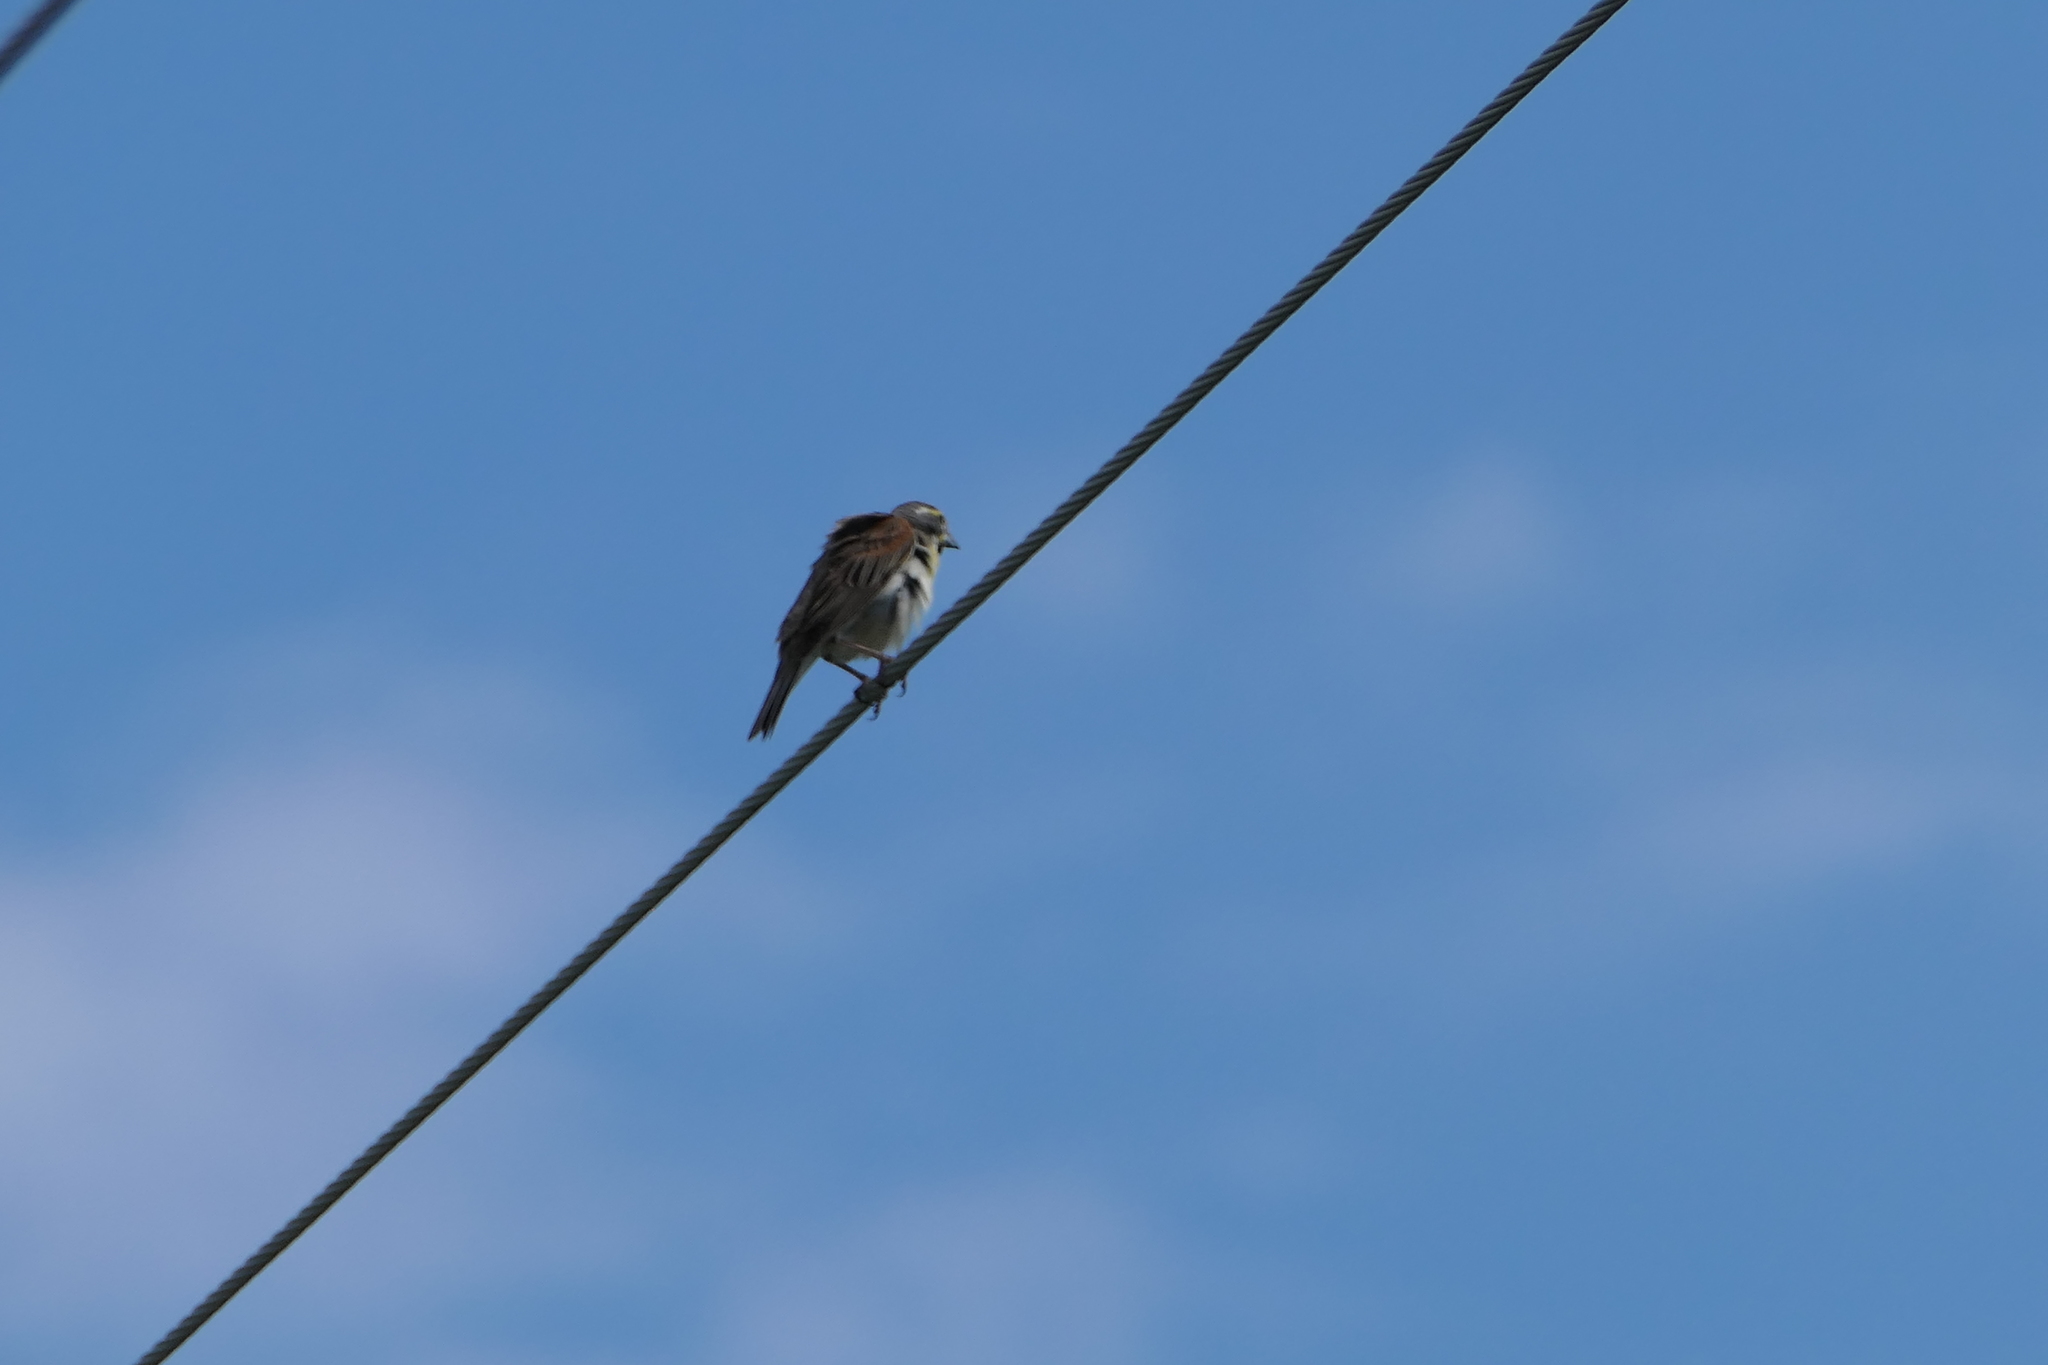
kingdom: Animalia
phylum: Chordata
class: Aves
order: Passeriformes
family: Cardinalidae
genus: Spiza
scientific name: Spiza americana
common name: Dickcissel
